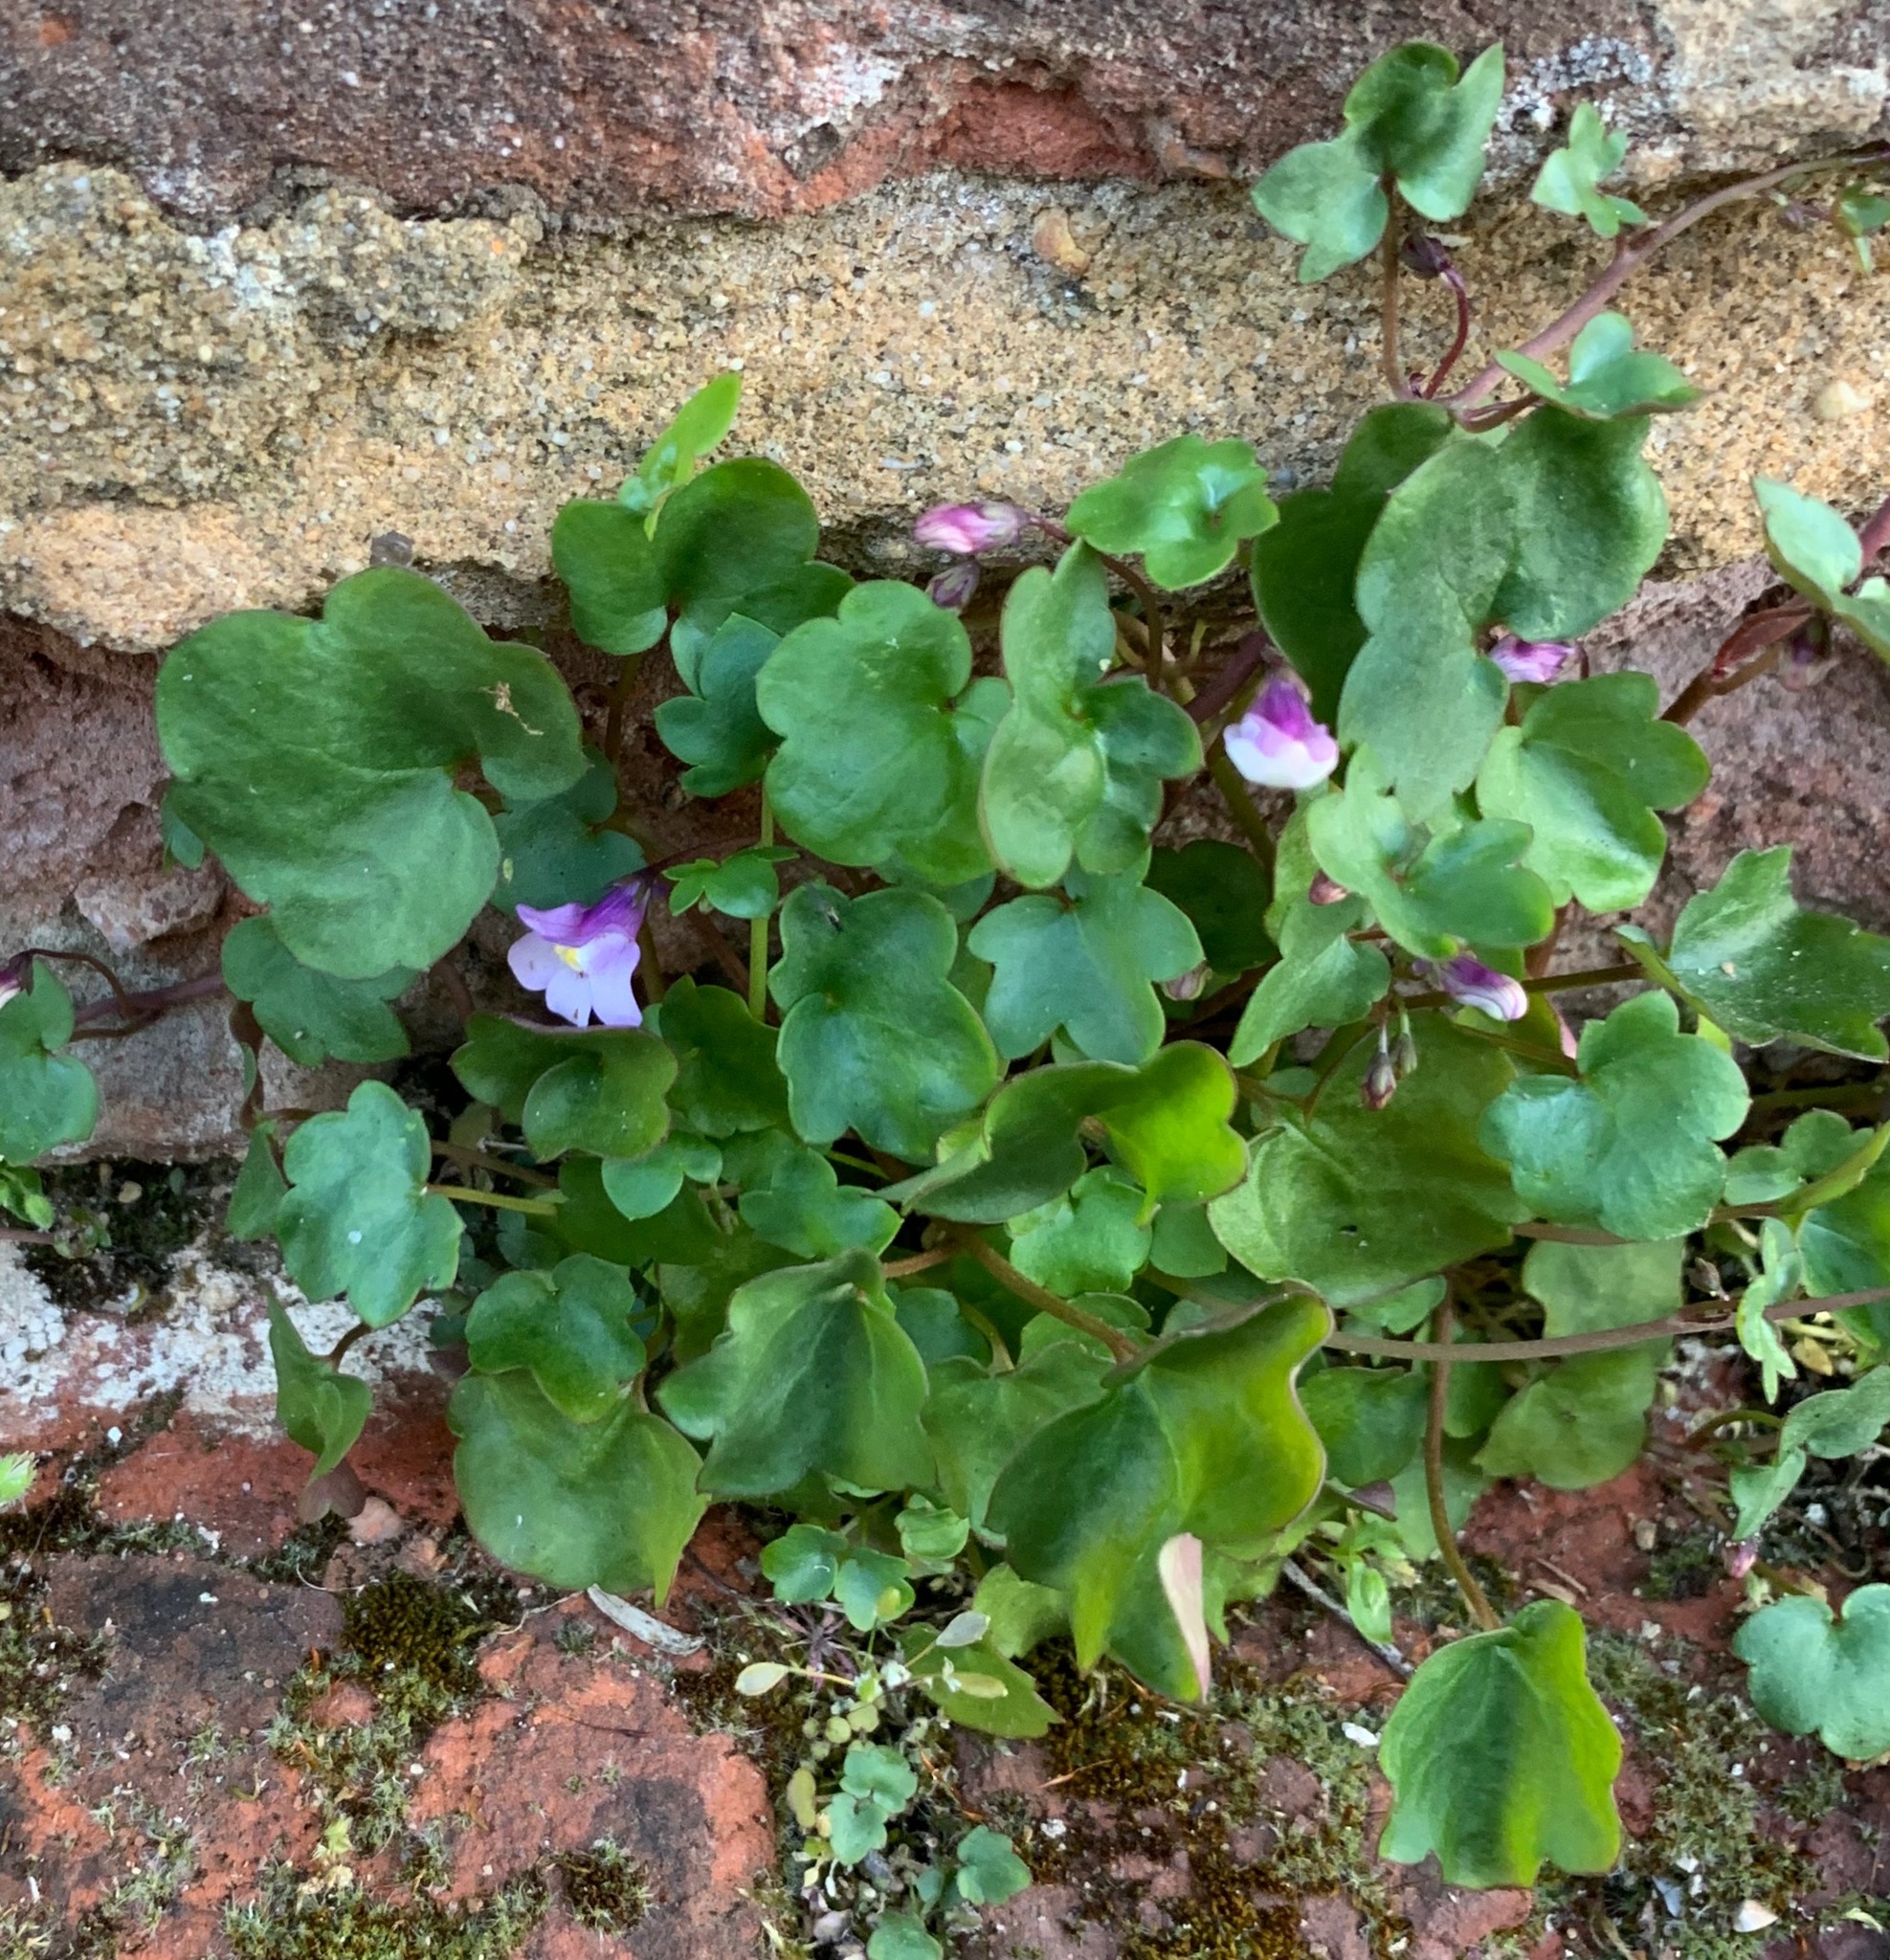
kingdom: Plantae
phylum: Tracheophyta
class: Magnoliopsida
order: Lamiales
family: Plantaginaceae
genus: Cymbalaria
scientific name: Cymbalaria muralis
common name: Ivy-leaved toadflax
